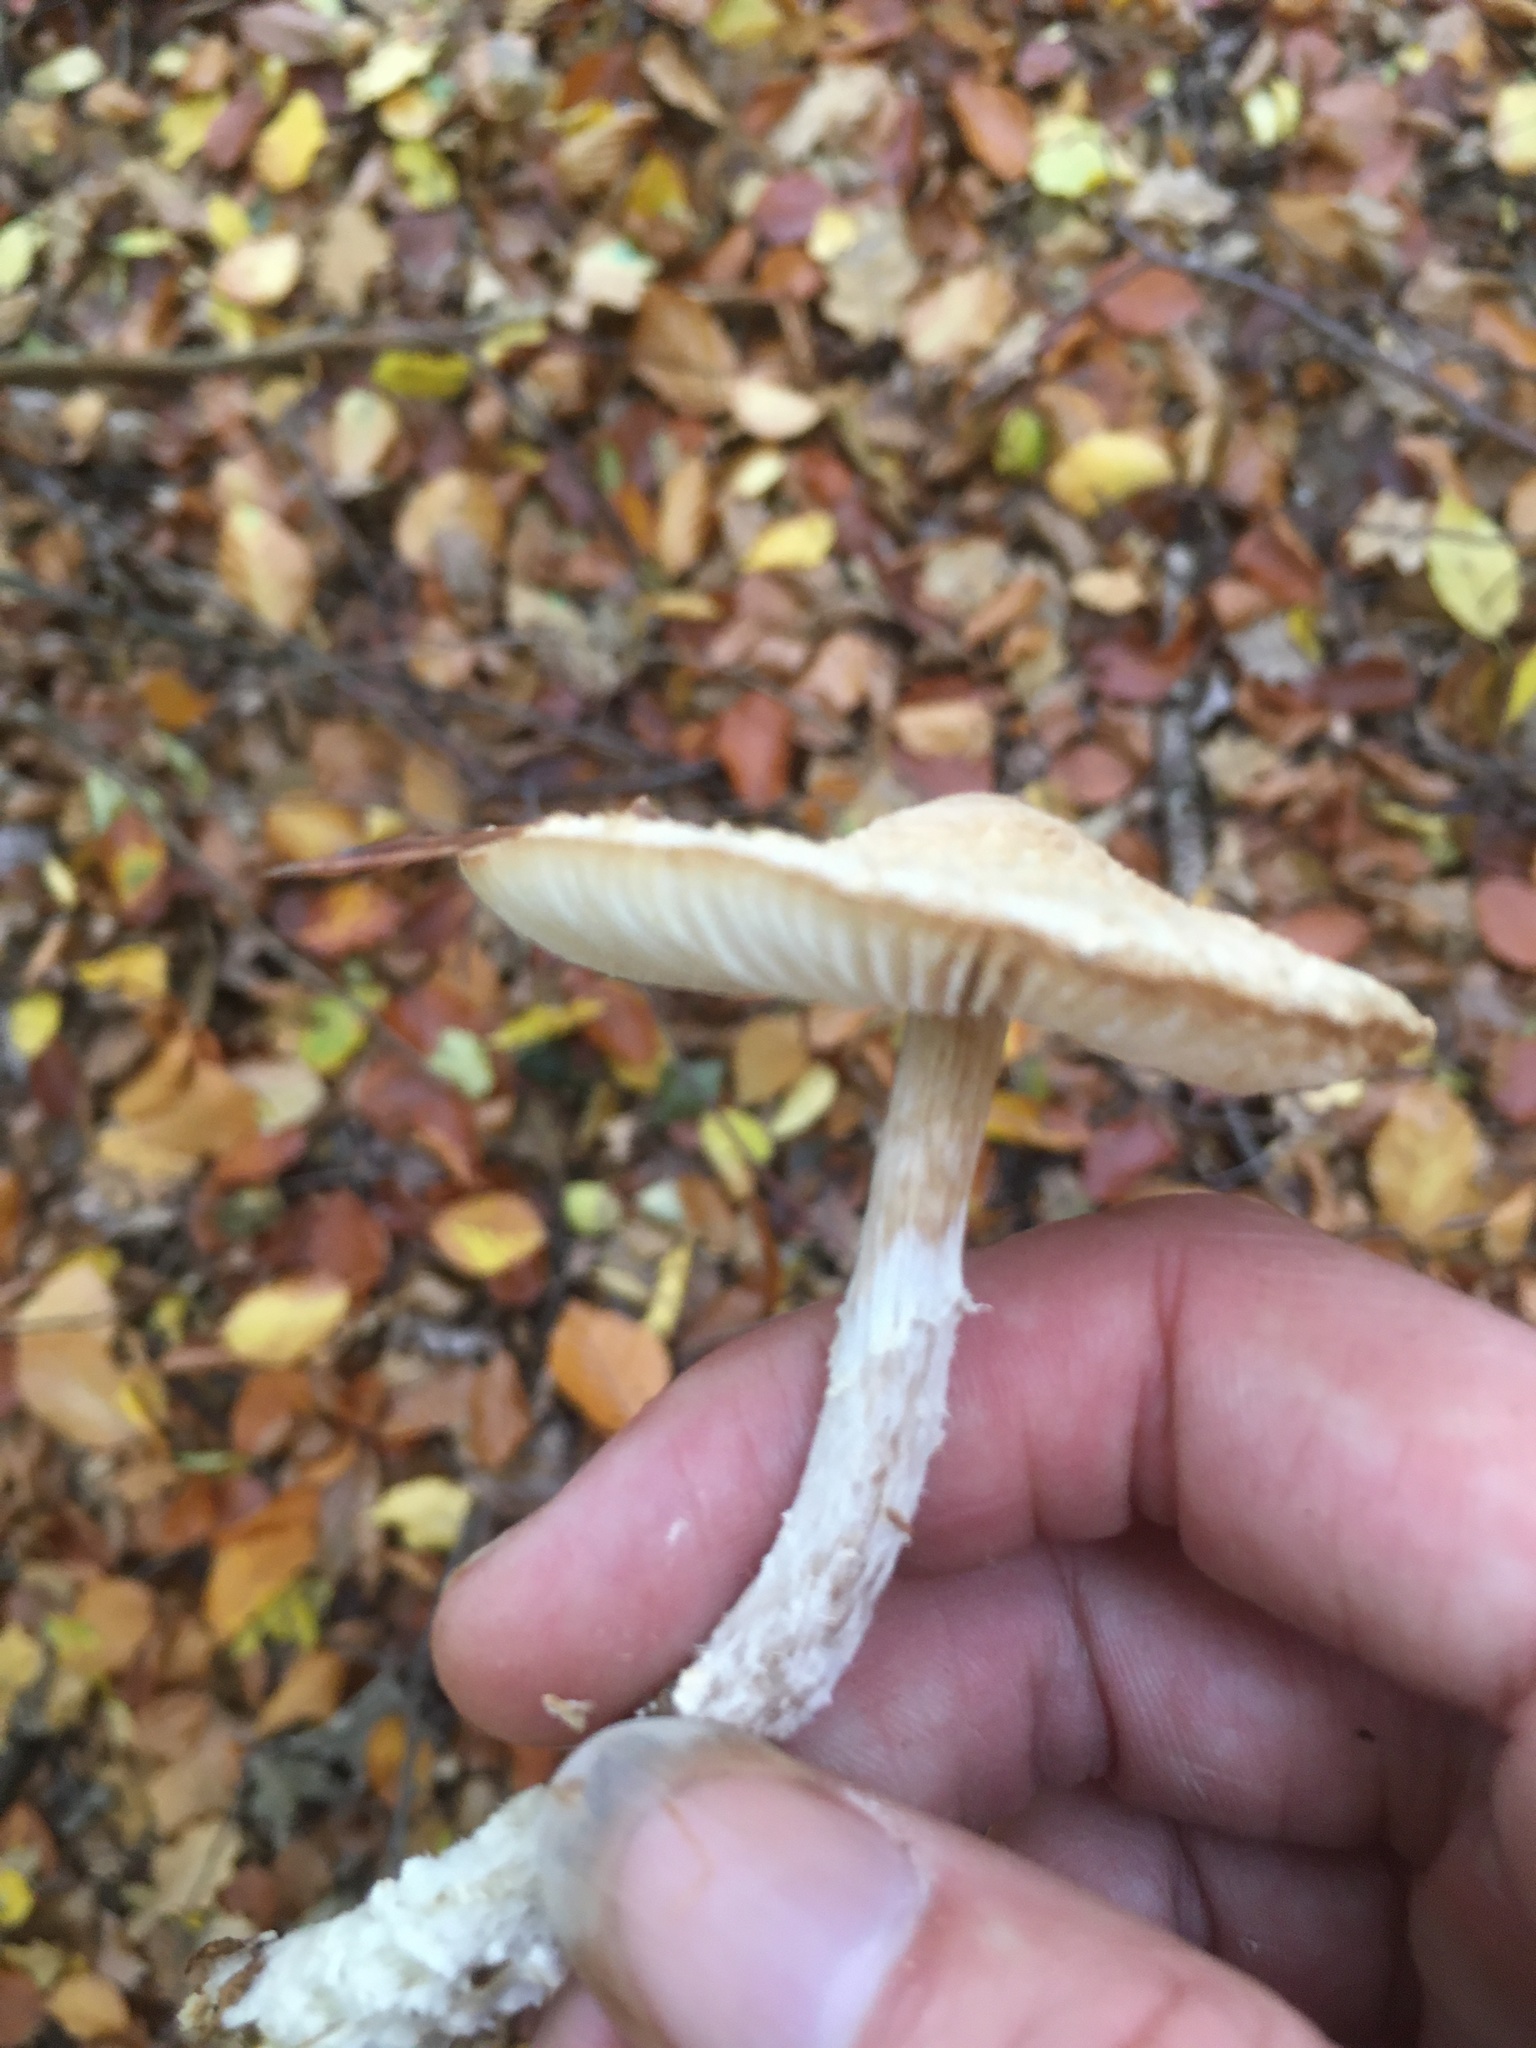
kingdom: Fungi
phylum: Basidiomycota
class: Agaricomycetes
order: Agaricales
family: Agaricaceae
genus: Lepiota
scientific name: Lepiota clypeolaria
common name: Shield dapperling
